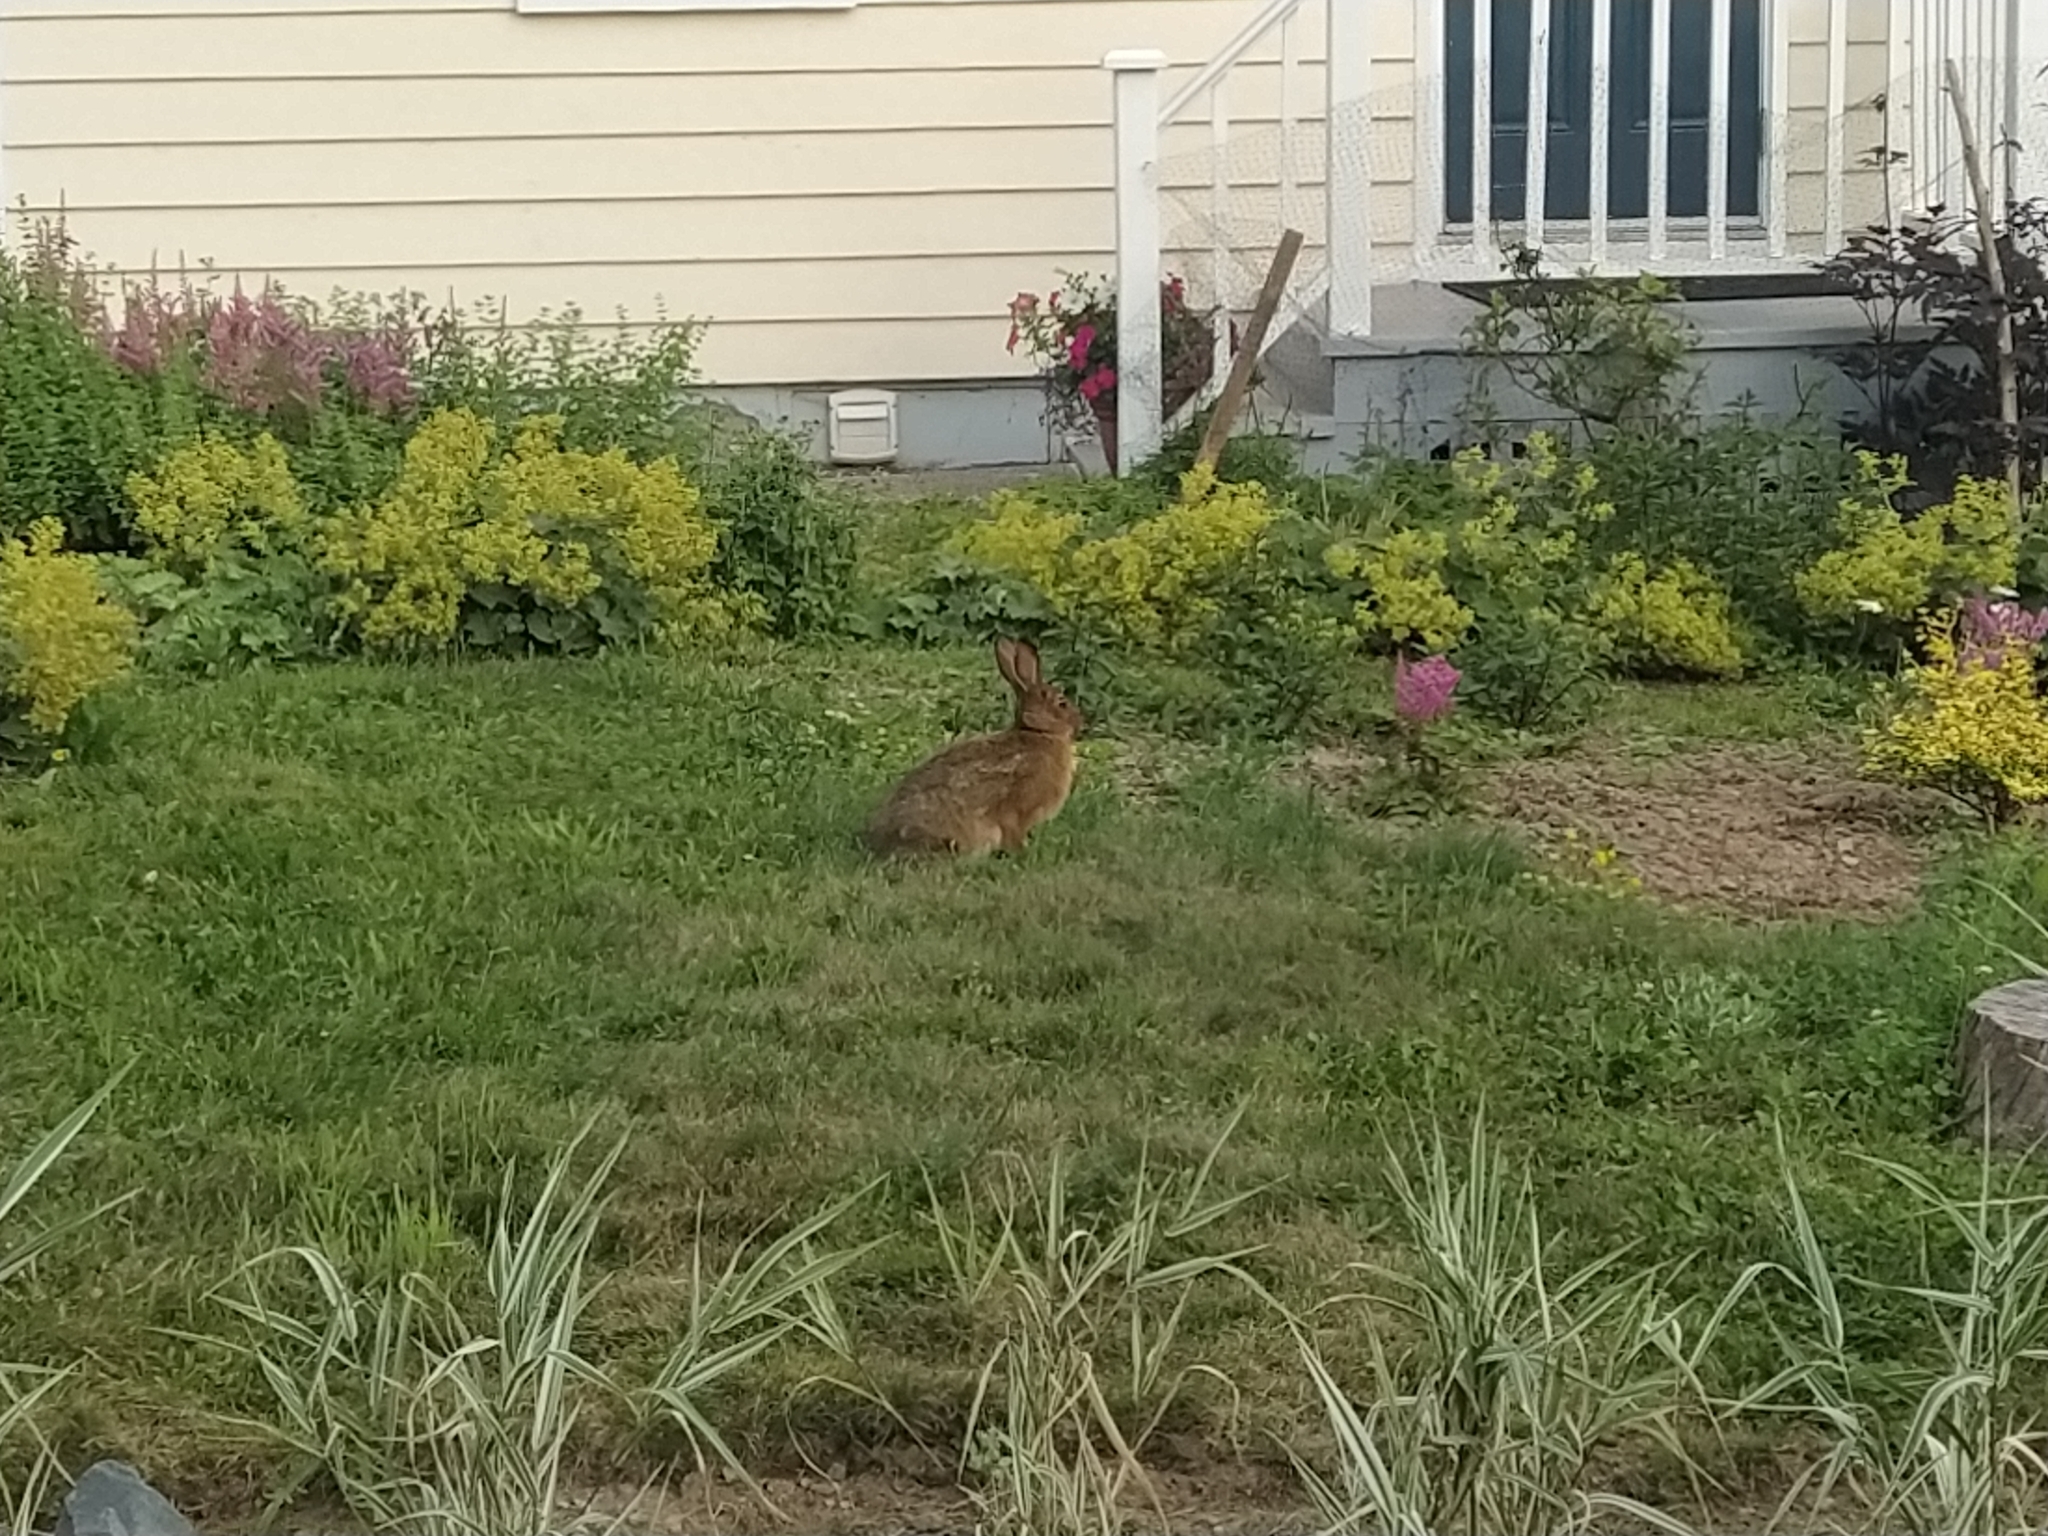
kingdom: Animalia
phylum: Chordata
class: Mammalia
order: Lagomorpha
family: Leporidae
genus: Lepus
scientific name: Lepus americanus
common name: Snowshoe hare
